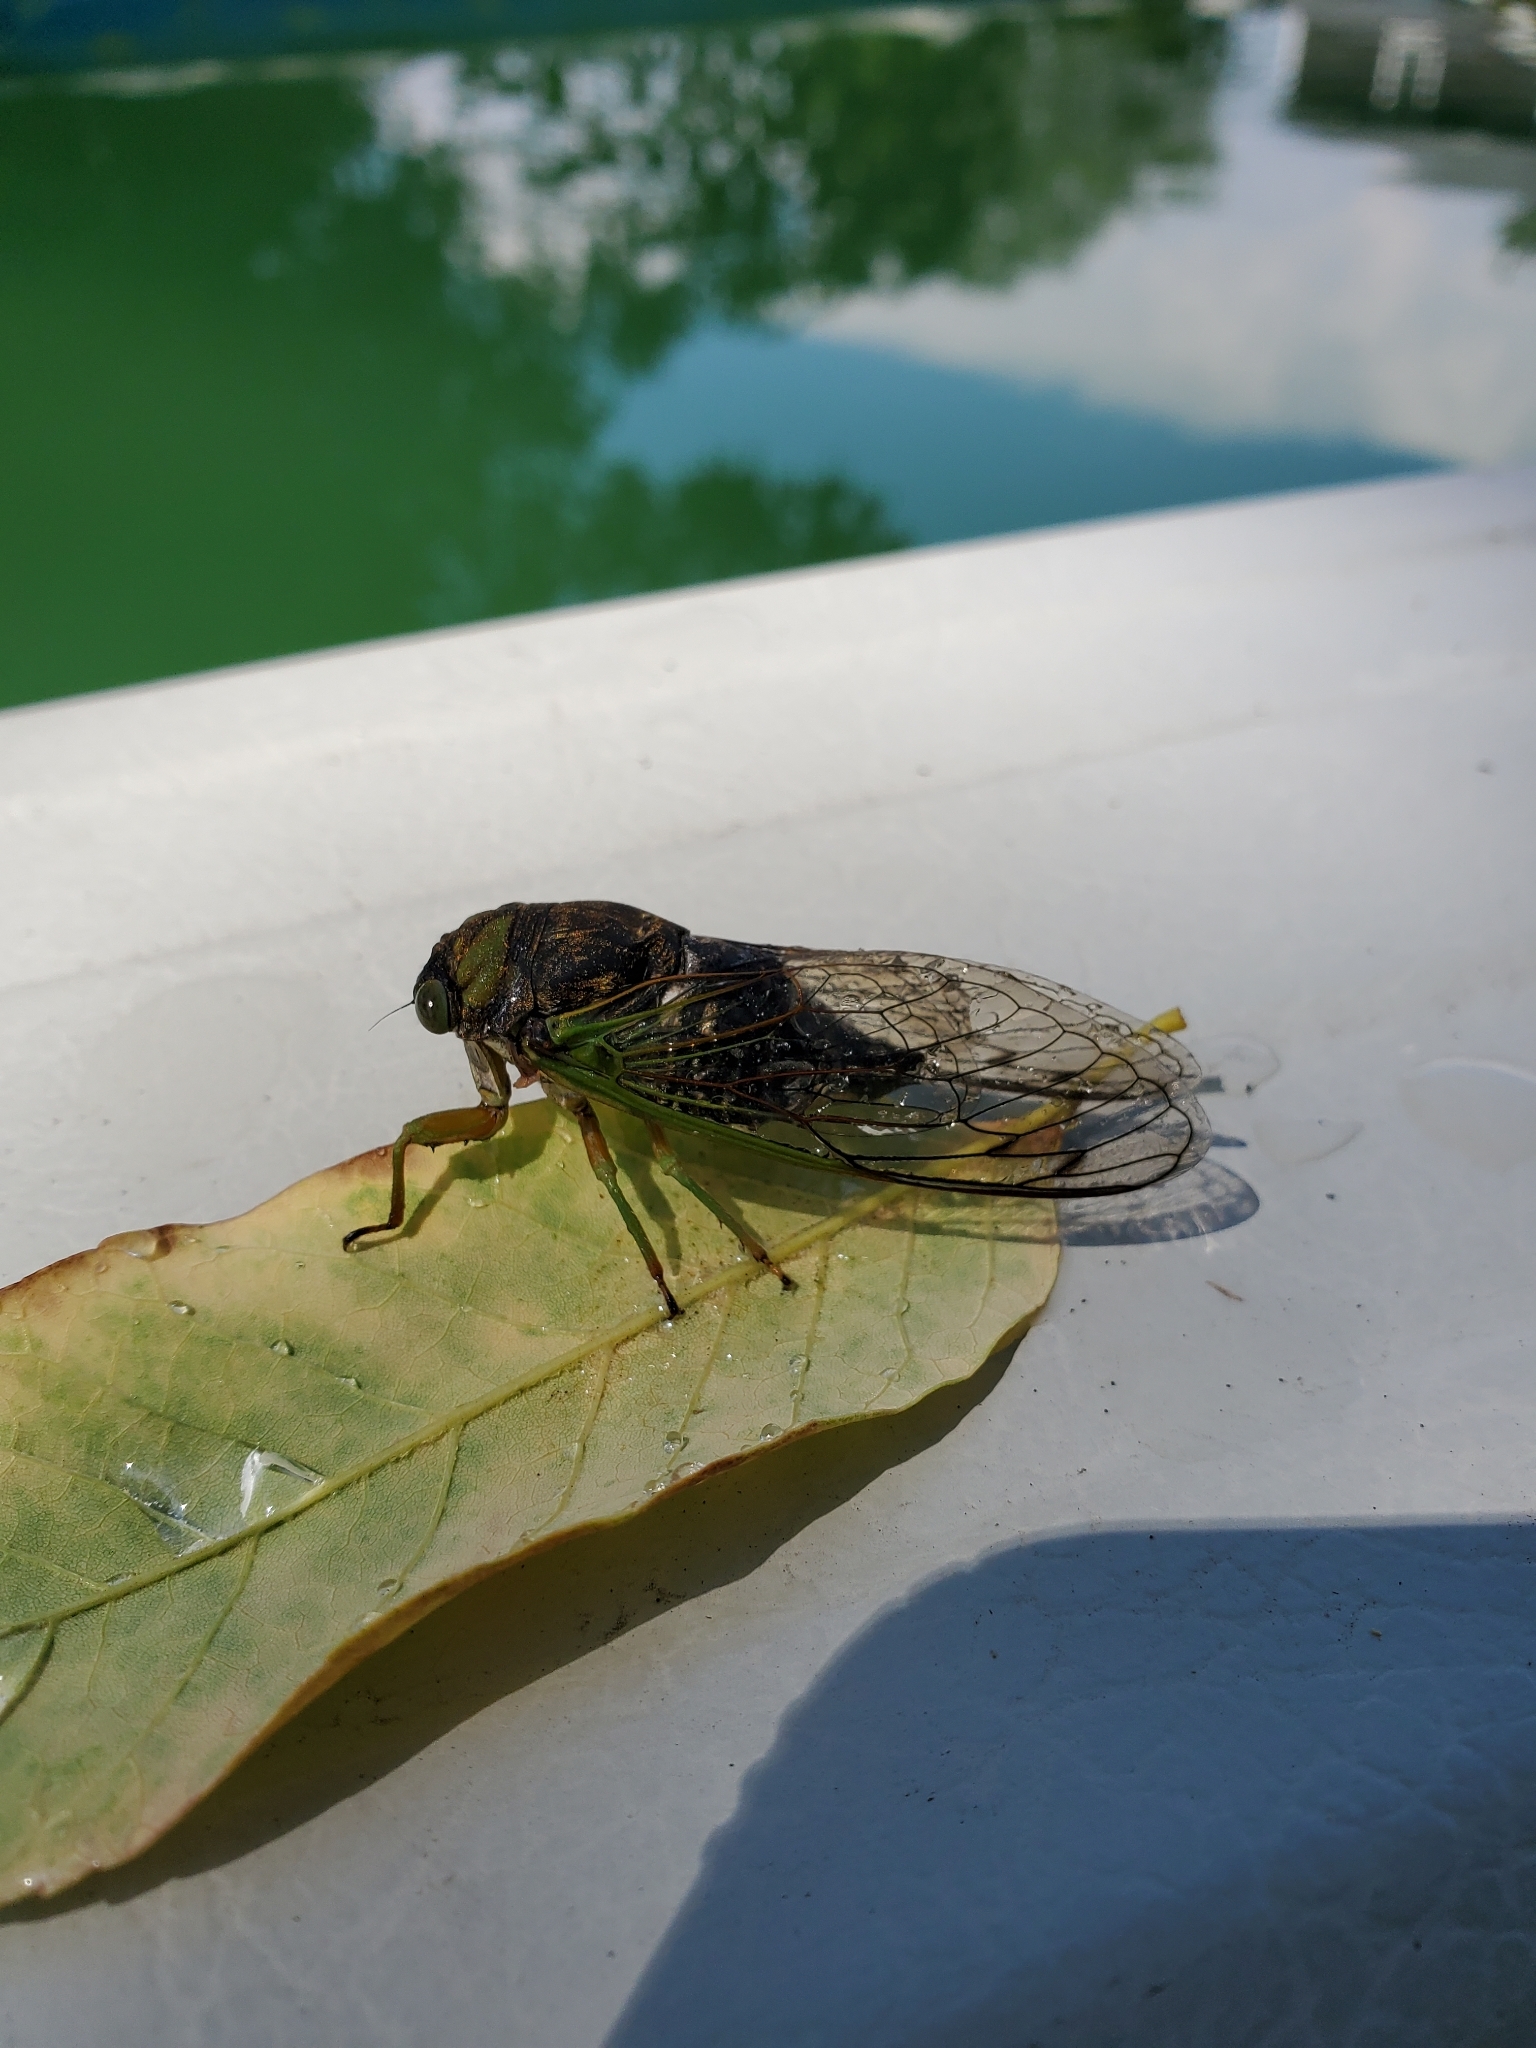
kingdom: Animalia
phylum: Arthropoda
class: Insecta
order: Hemiptera
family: Cicadidae
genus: Neotibicen
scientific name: Neotibicen tibicen
